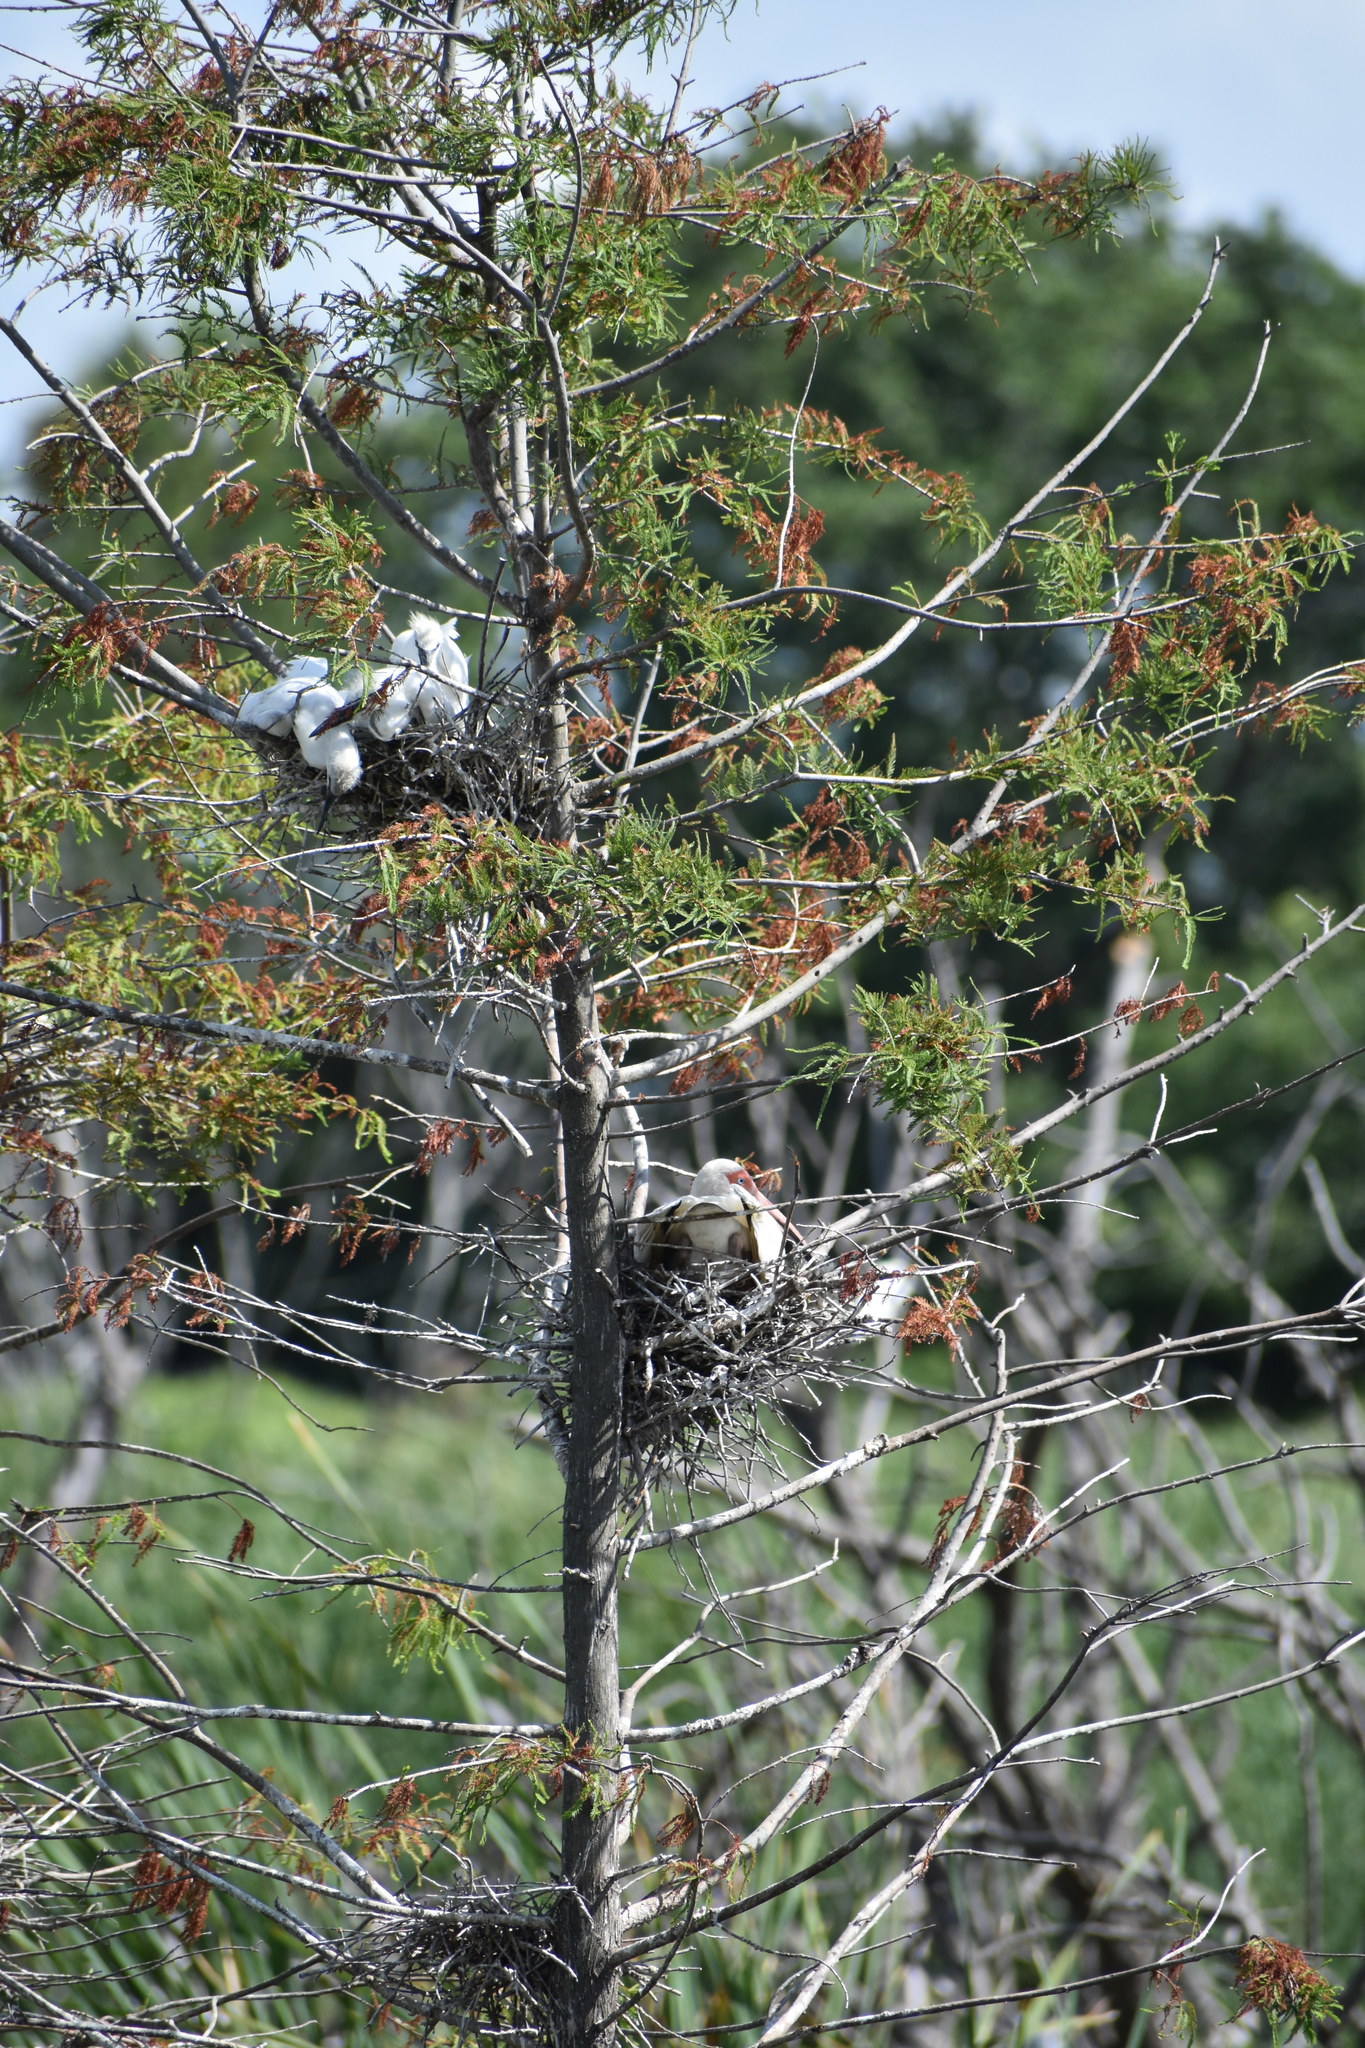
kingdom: Animalia
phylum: Chordata
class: Aves
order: Pelecaniformes
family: Ardeidae
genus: Egretta
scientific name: Egretta caerulea
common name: Little blue heron
